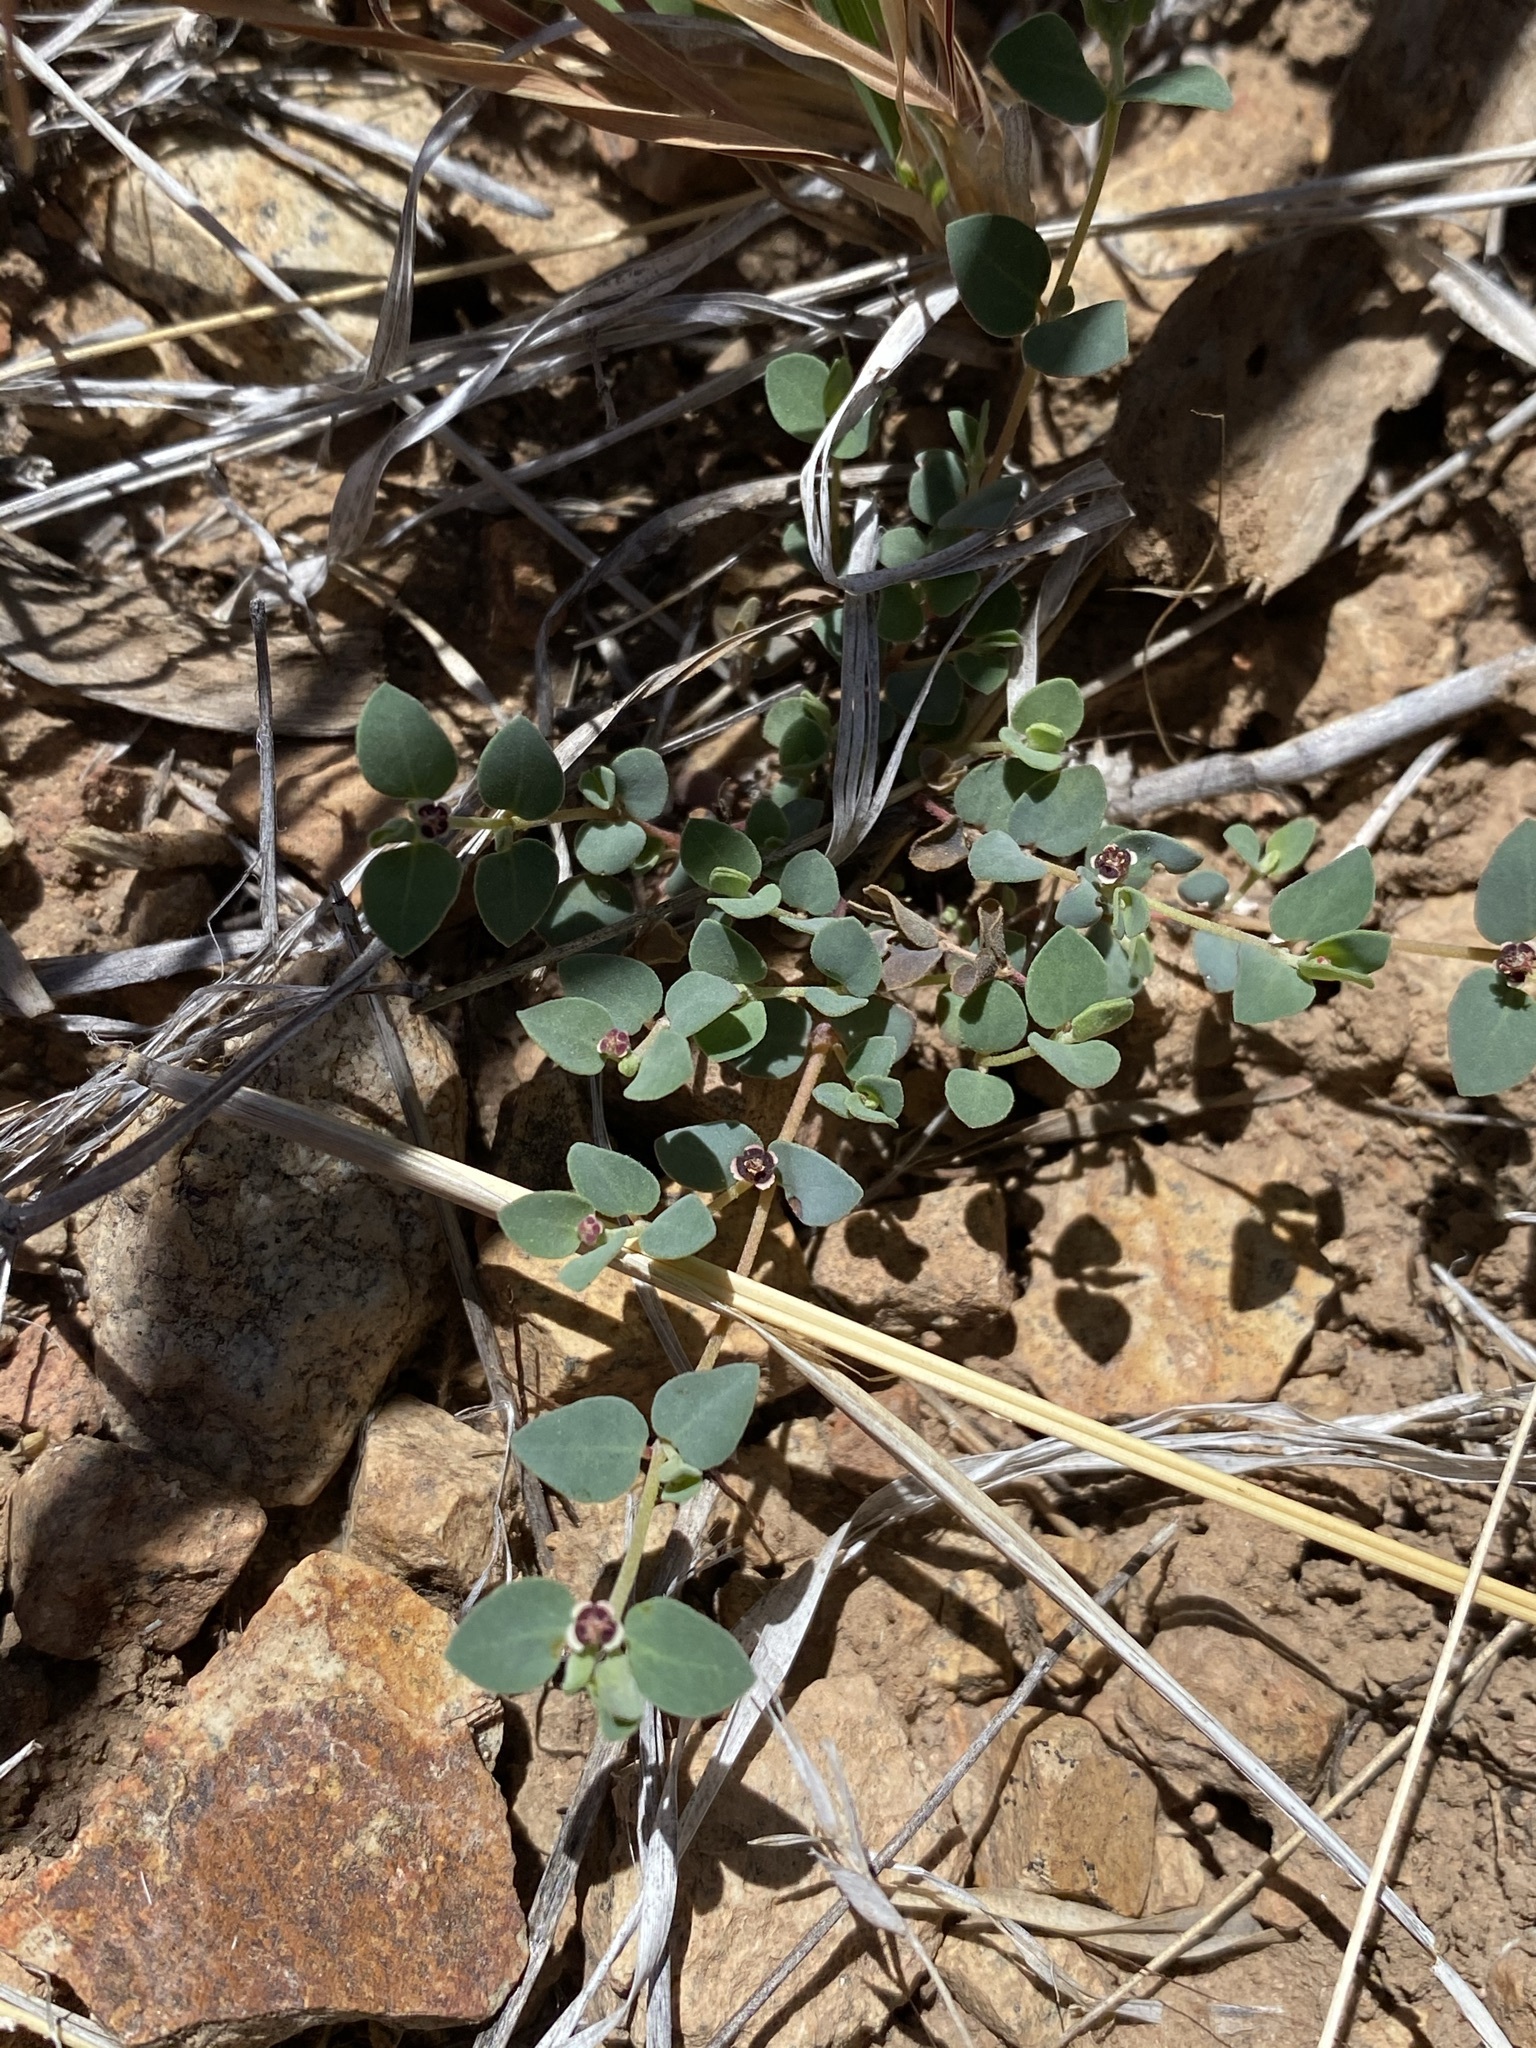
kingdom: Plantae
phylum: Tracheophyta
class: Magnoliopsida
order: Malpighiales
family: Euphorbiaceae
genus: Euphorbia
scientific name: Euphorbia cinerascens
